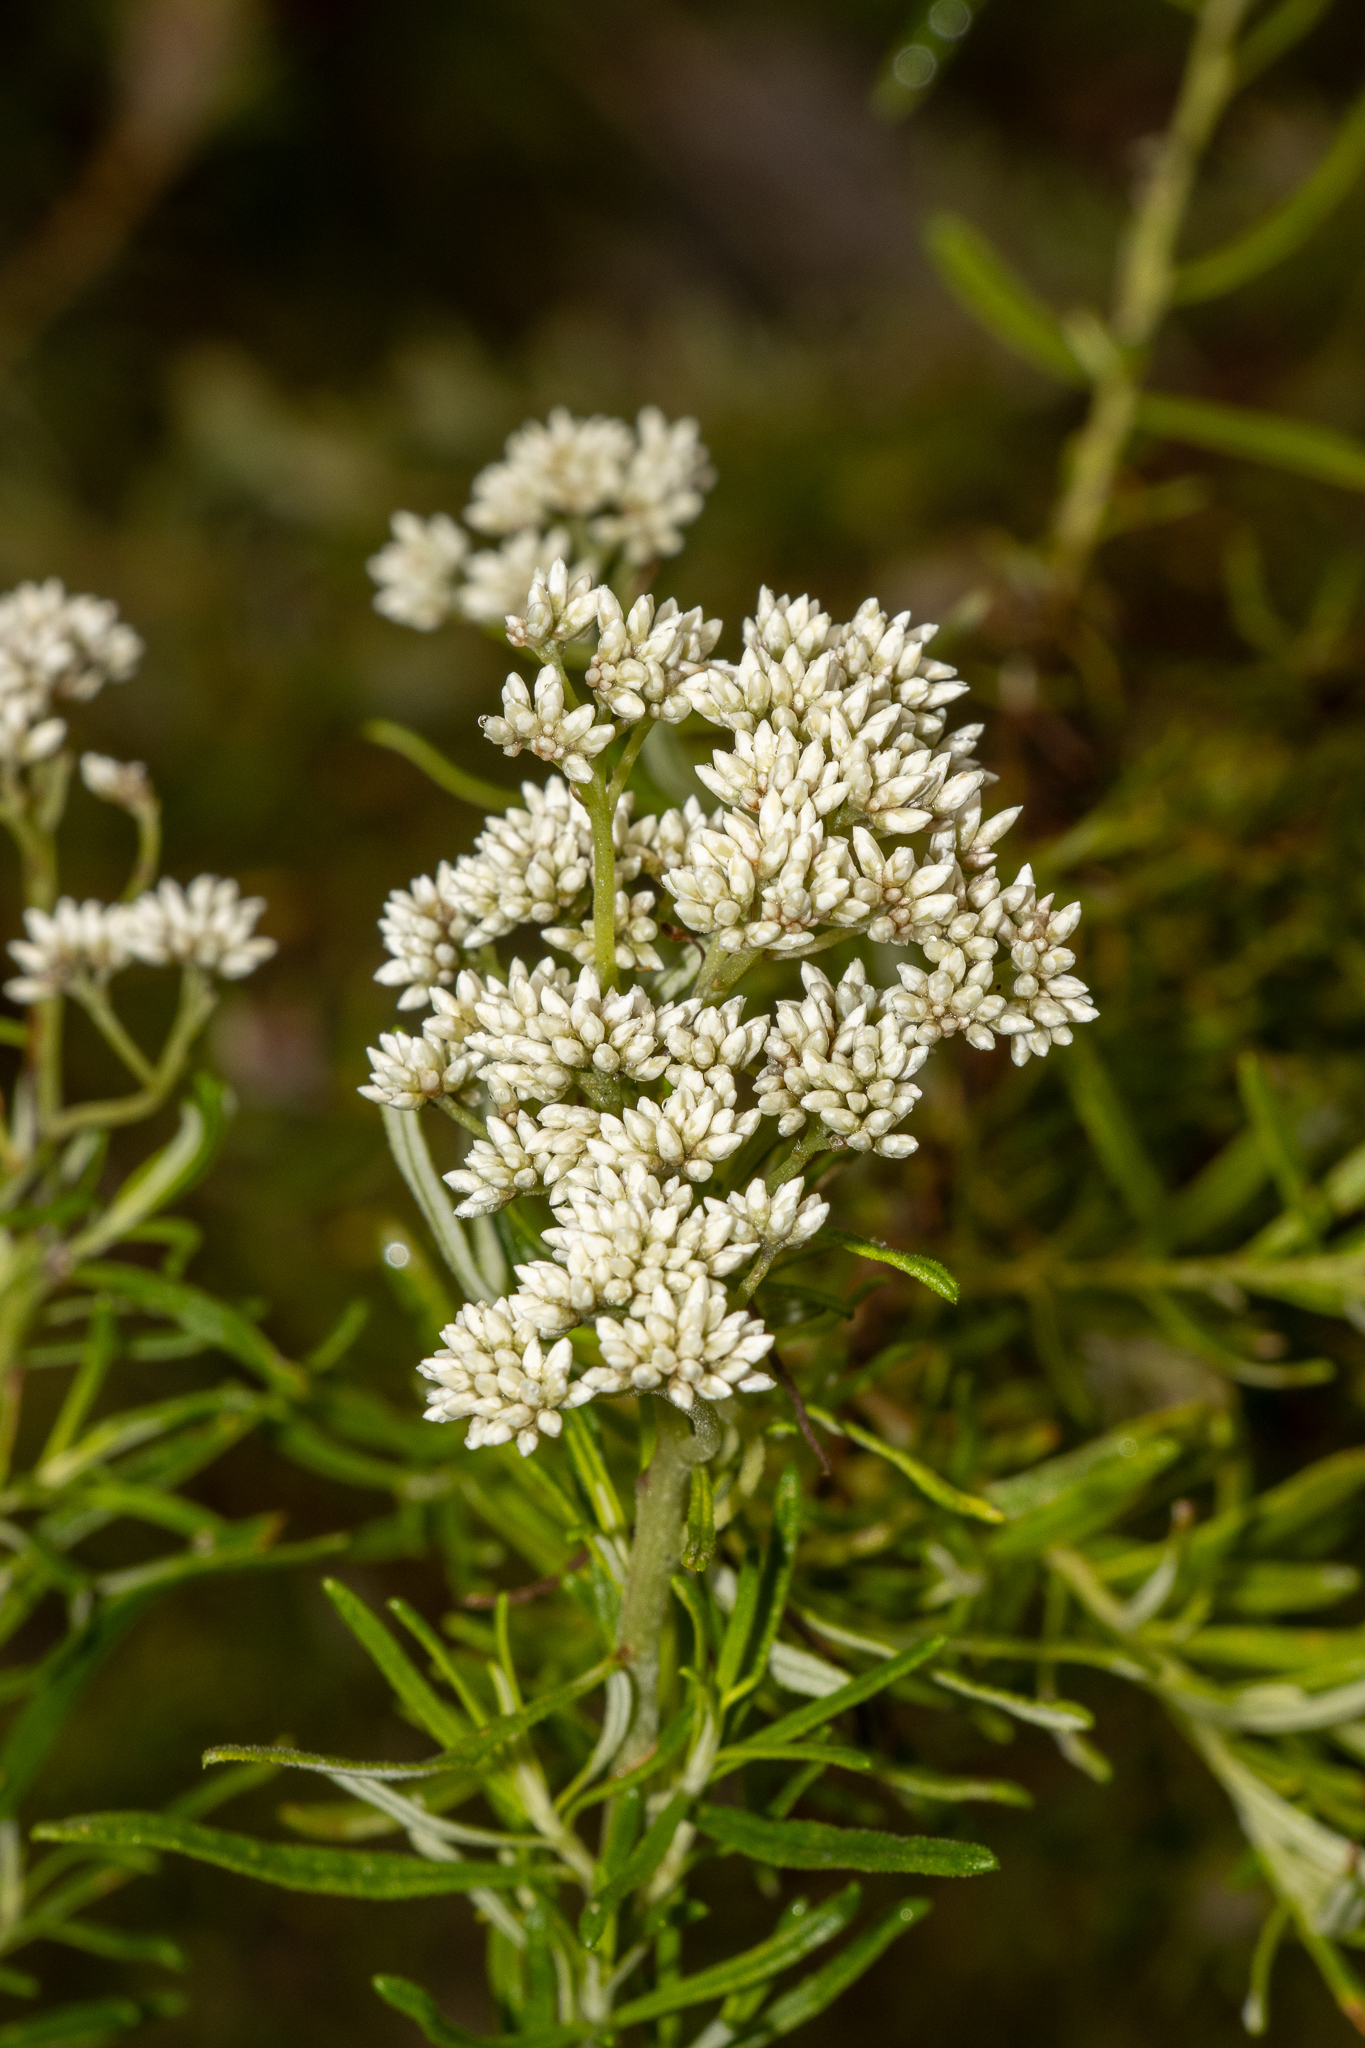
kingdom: Plantae
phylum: Tracheophyta
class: Magnoliopsida
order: Asterales
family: Asteraceae
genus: Cassinia
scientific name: Cassinia aculeata
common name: Australian tauhinu
